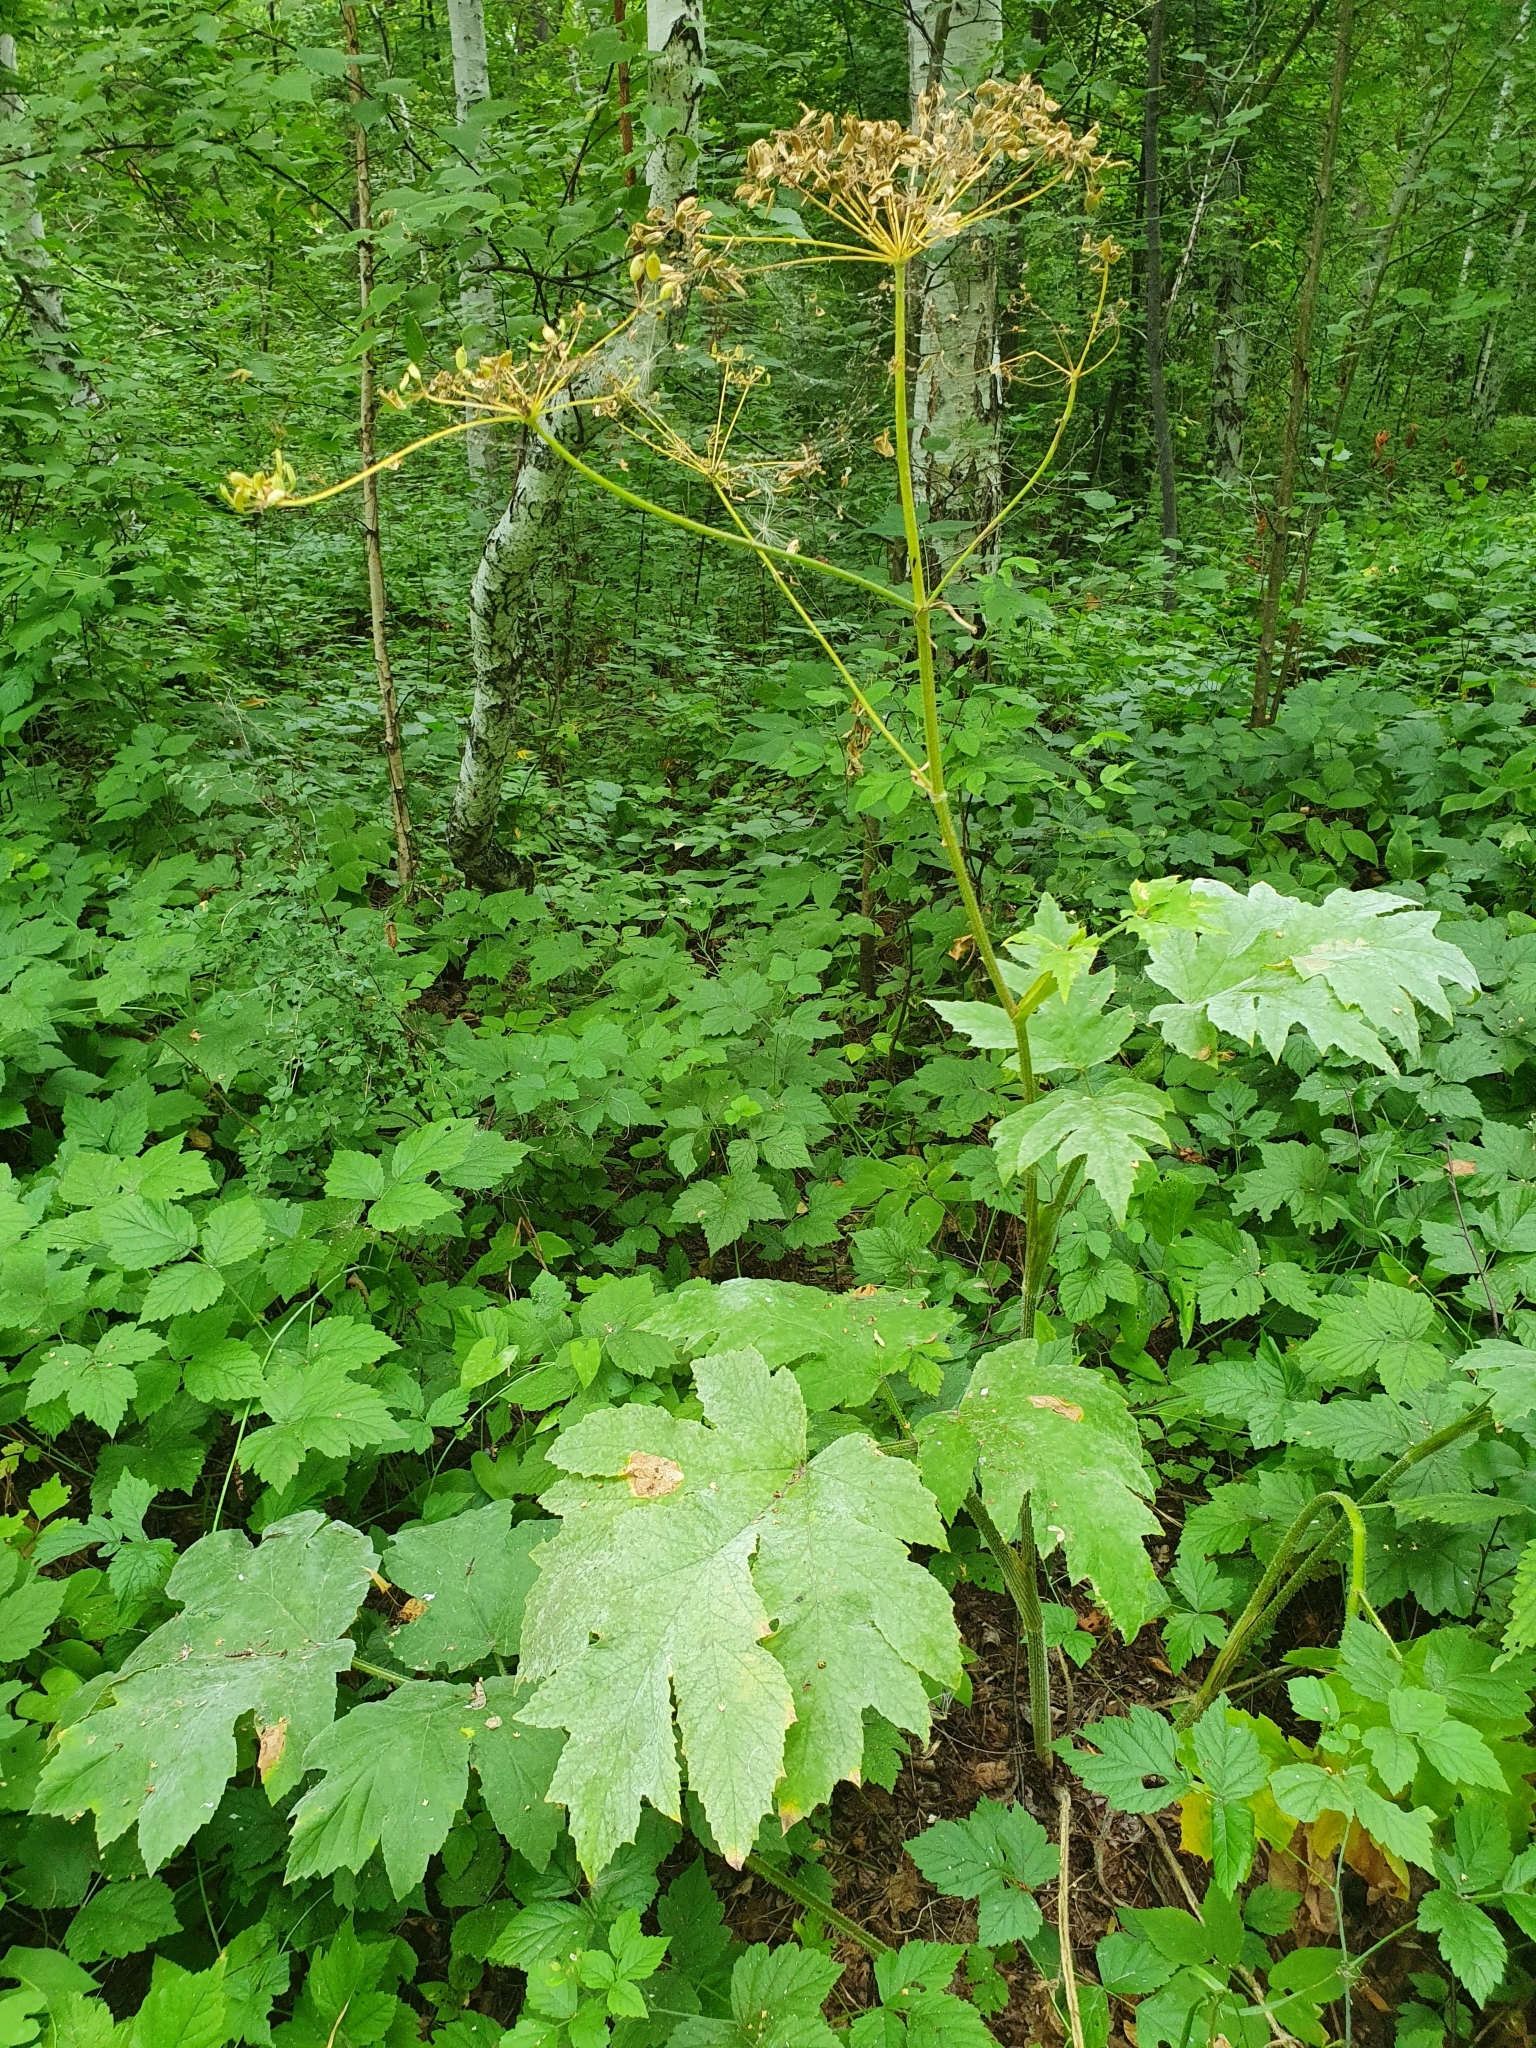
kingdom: Plantae
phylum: Tracheophyta
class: Magnoliopsida
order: Apiales
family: Apiaceae
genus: Heracleum
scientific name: Heracleum sphondylium
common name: Hogweed
